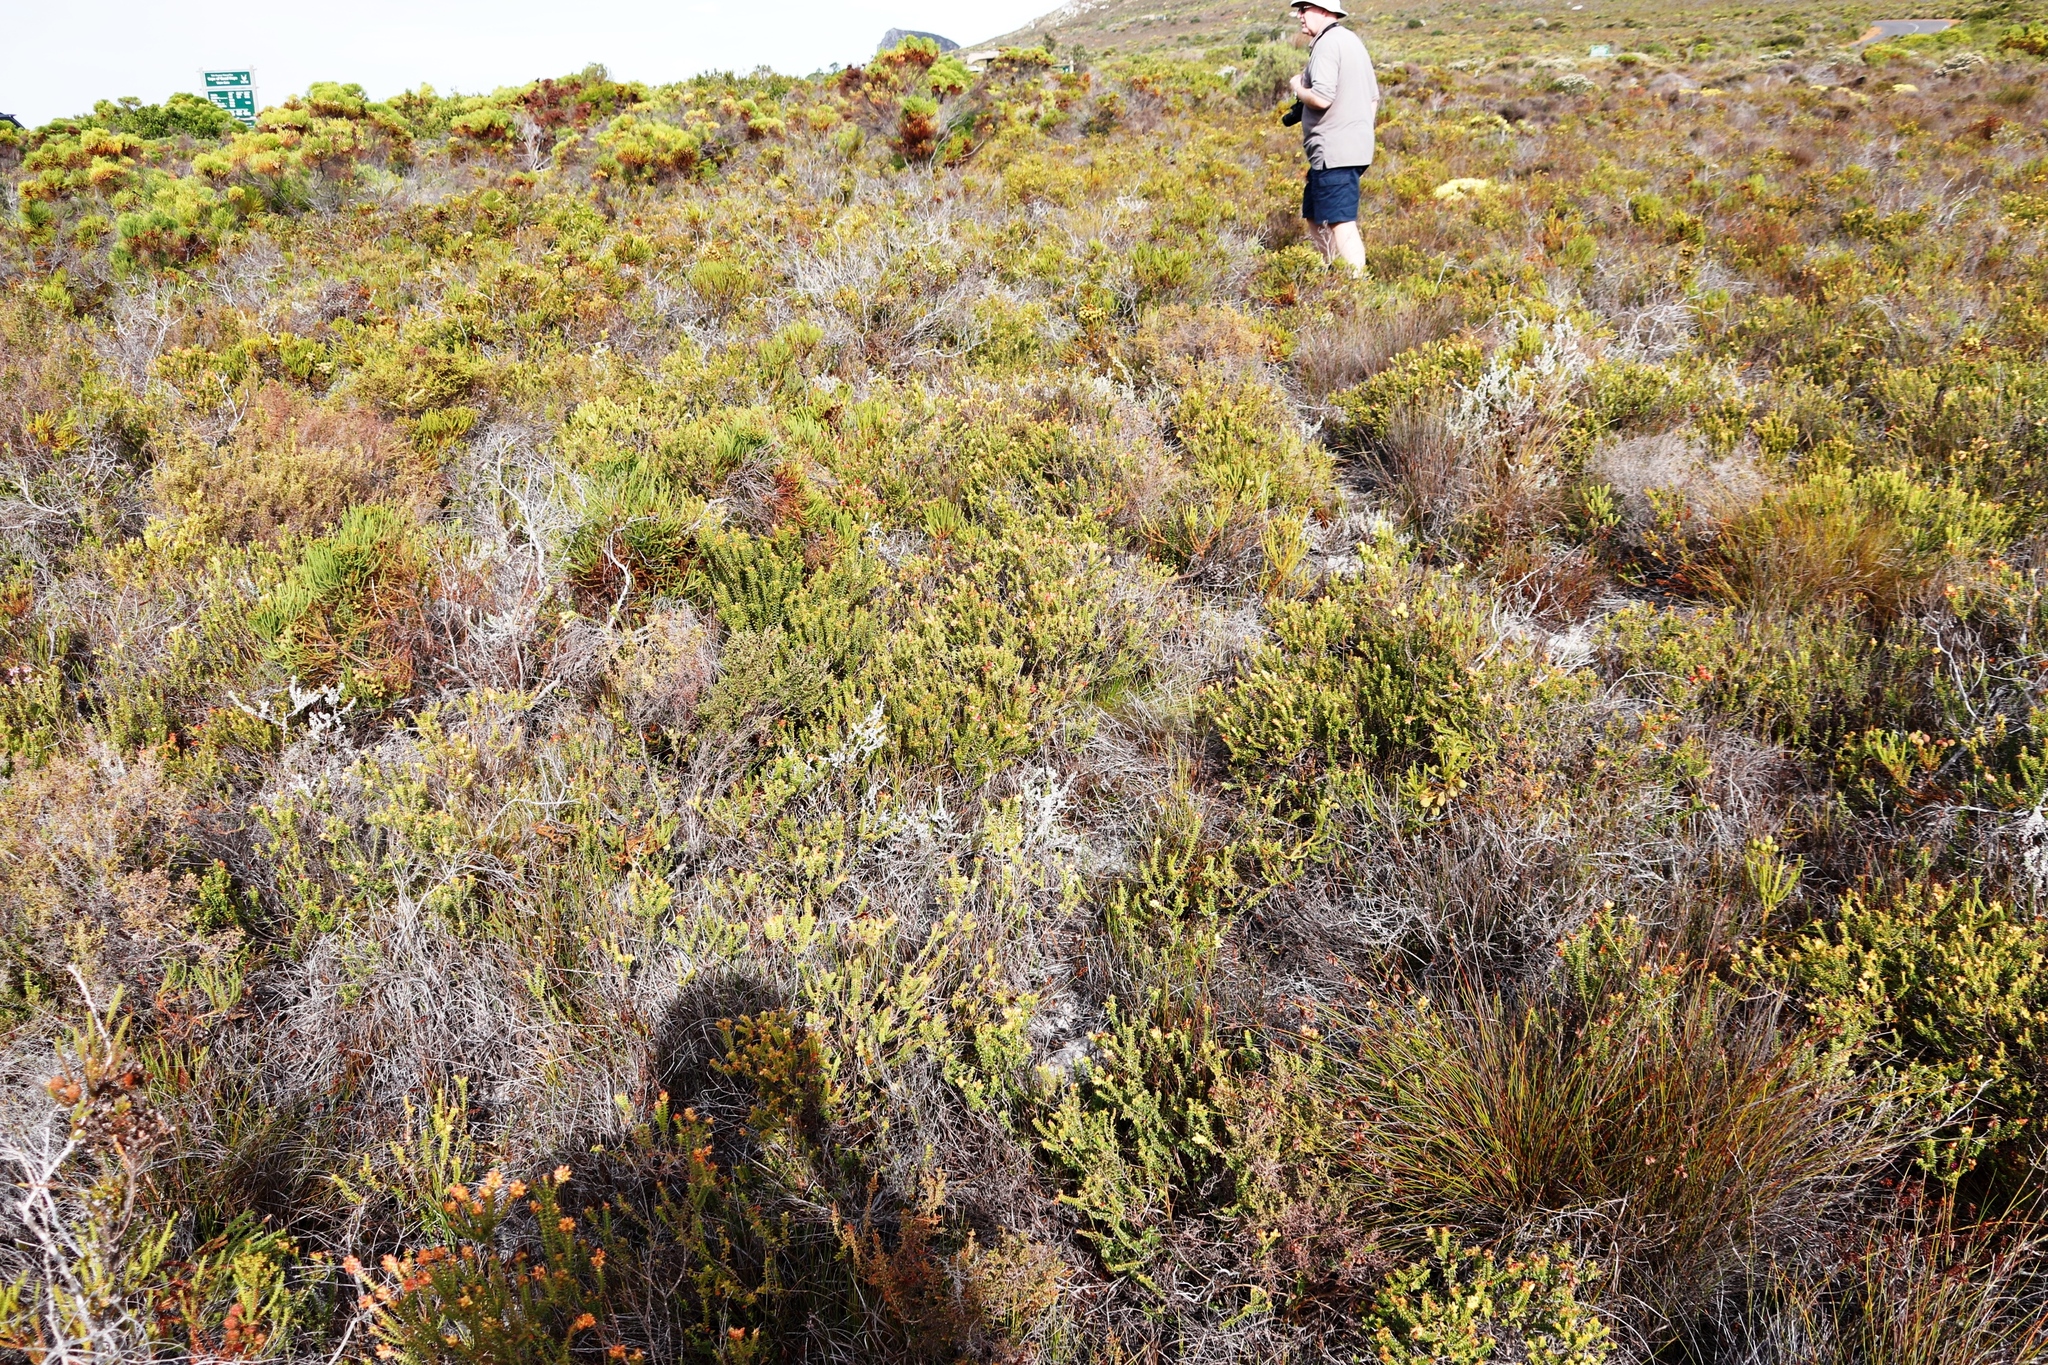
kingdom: Plantae
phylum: Tracheophyta
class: Magnoliopsida
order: Myrtales
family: Penaeaceae
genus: Penaea
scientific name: Penaea mucronata
